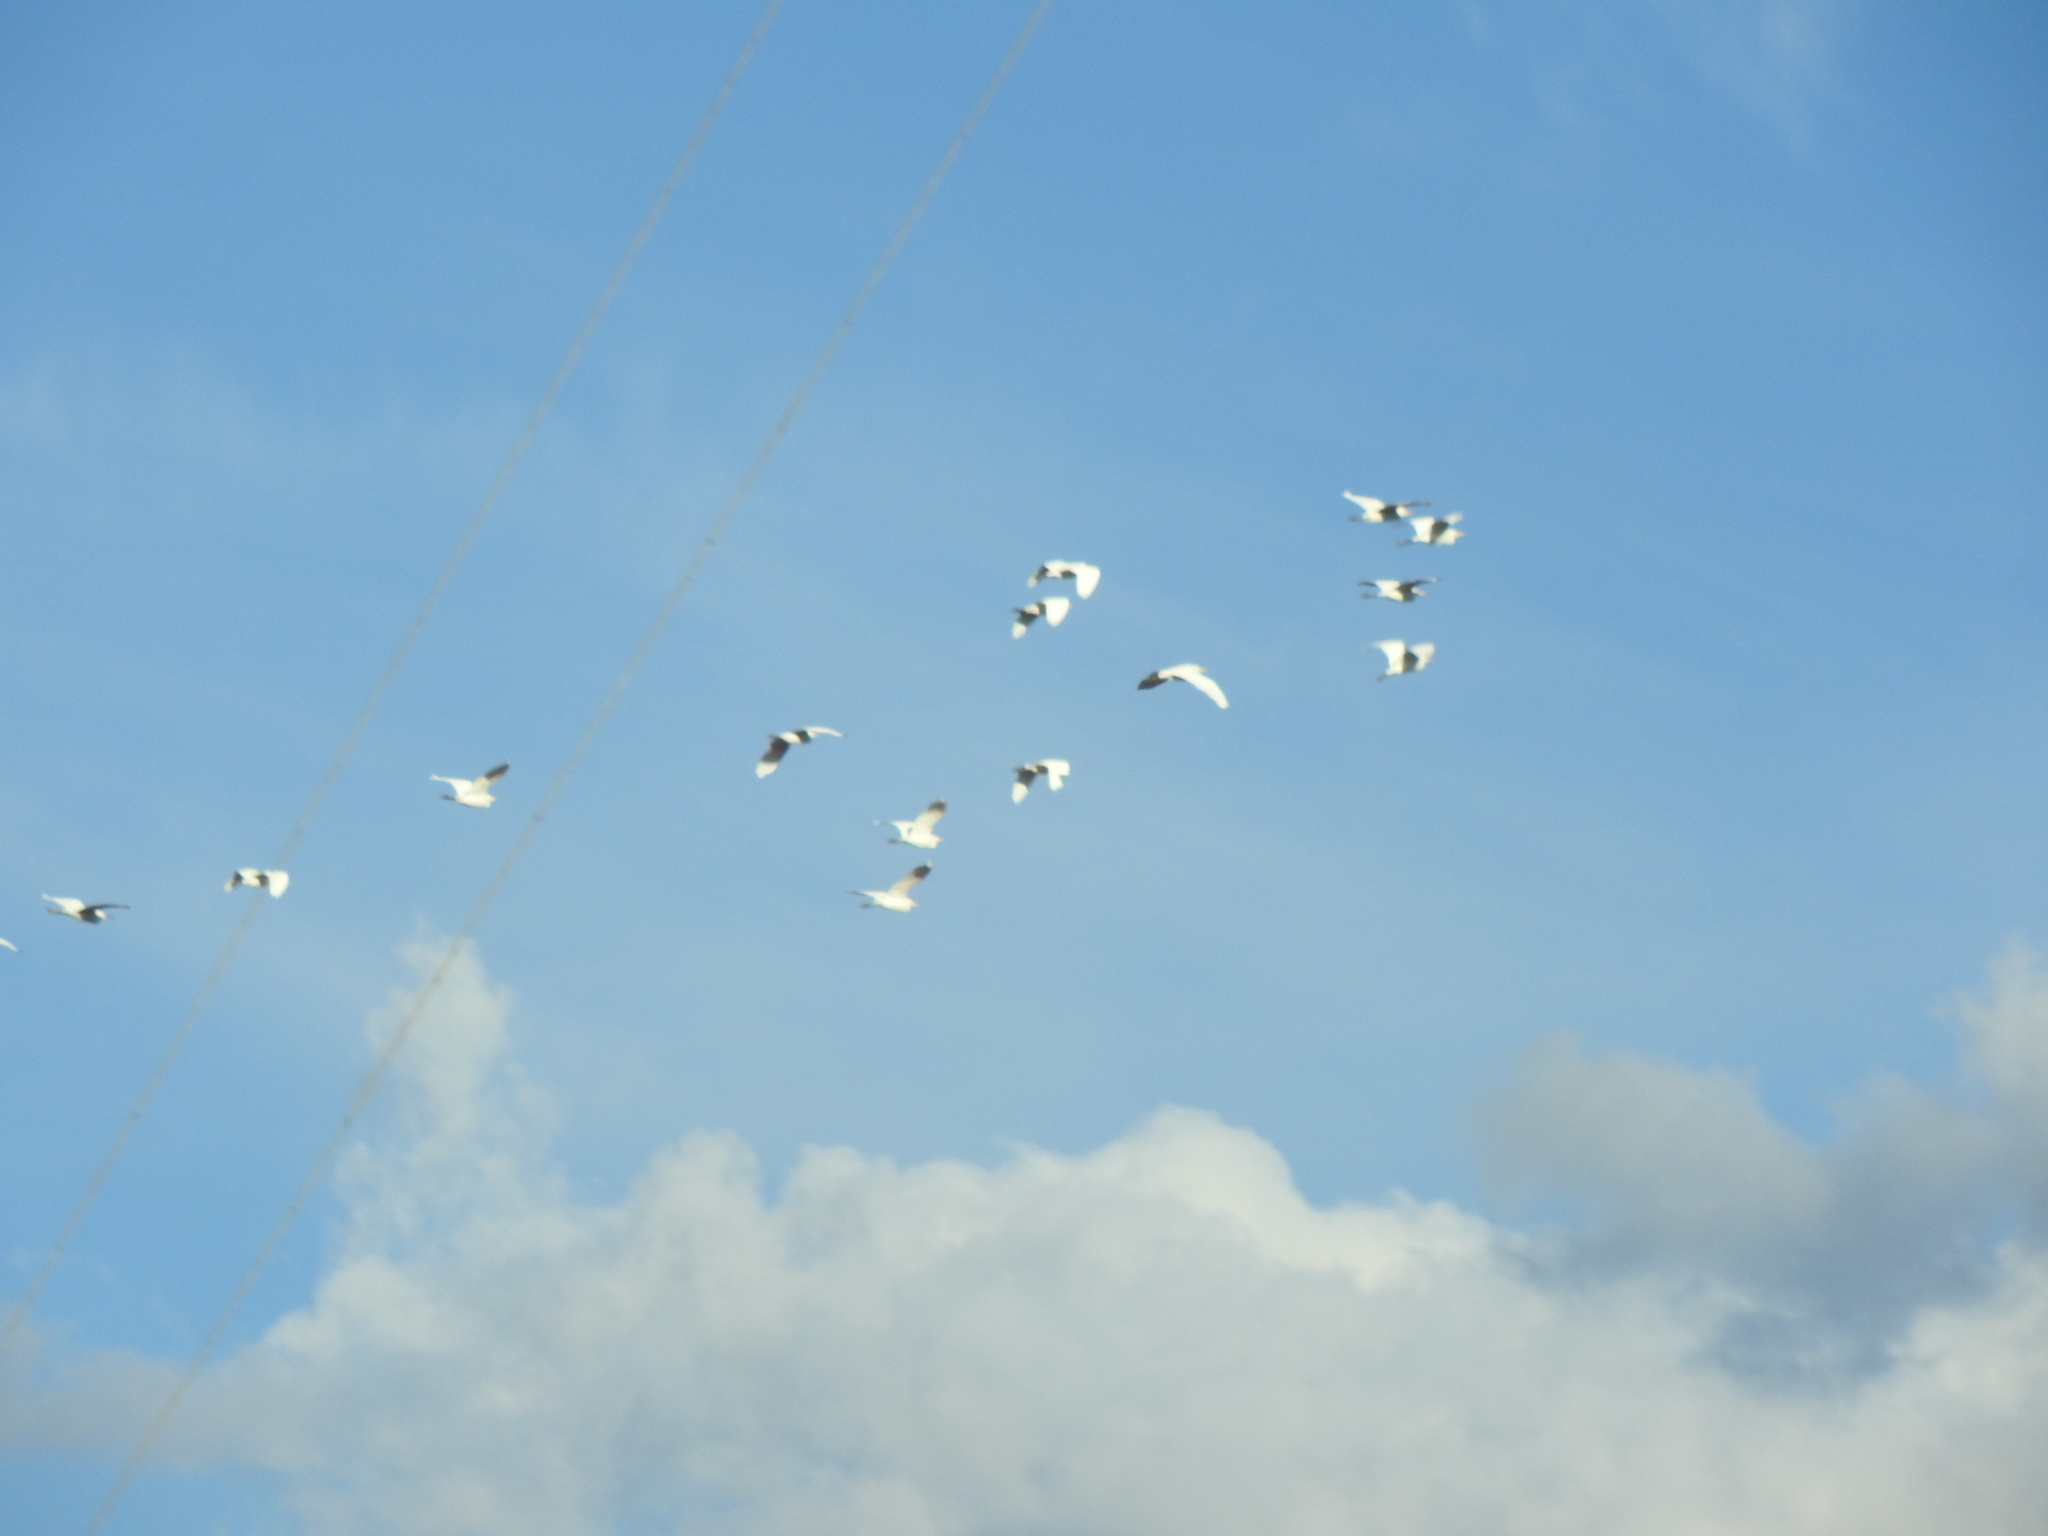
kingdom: Animalia
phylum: Chordata
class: Aves
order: Pelecaniformes
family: Ardeidae
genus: Bubulcus
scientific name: Bubulcus ibis
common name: Cattle egret
